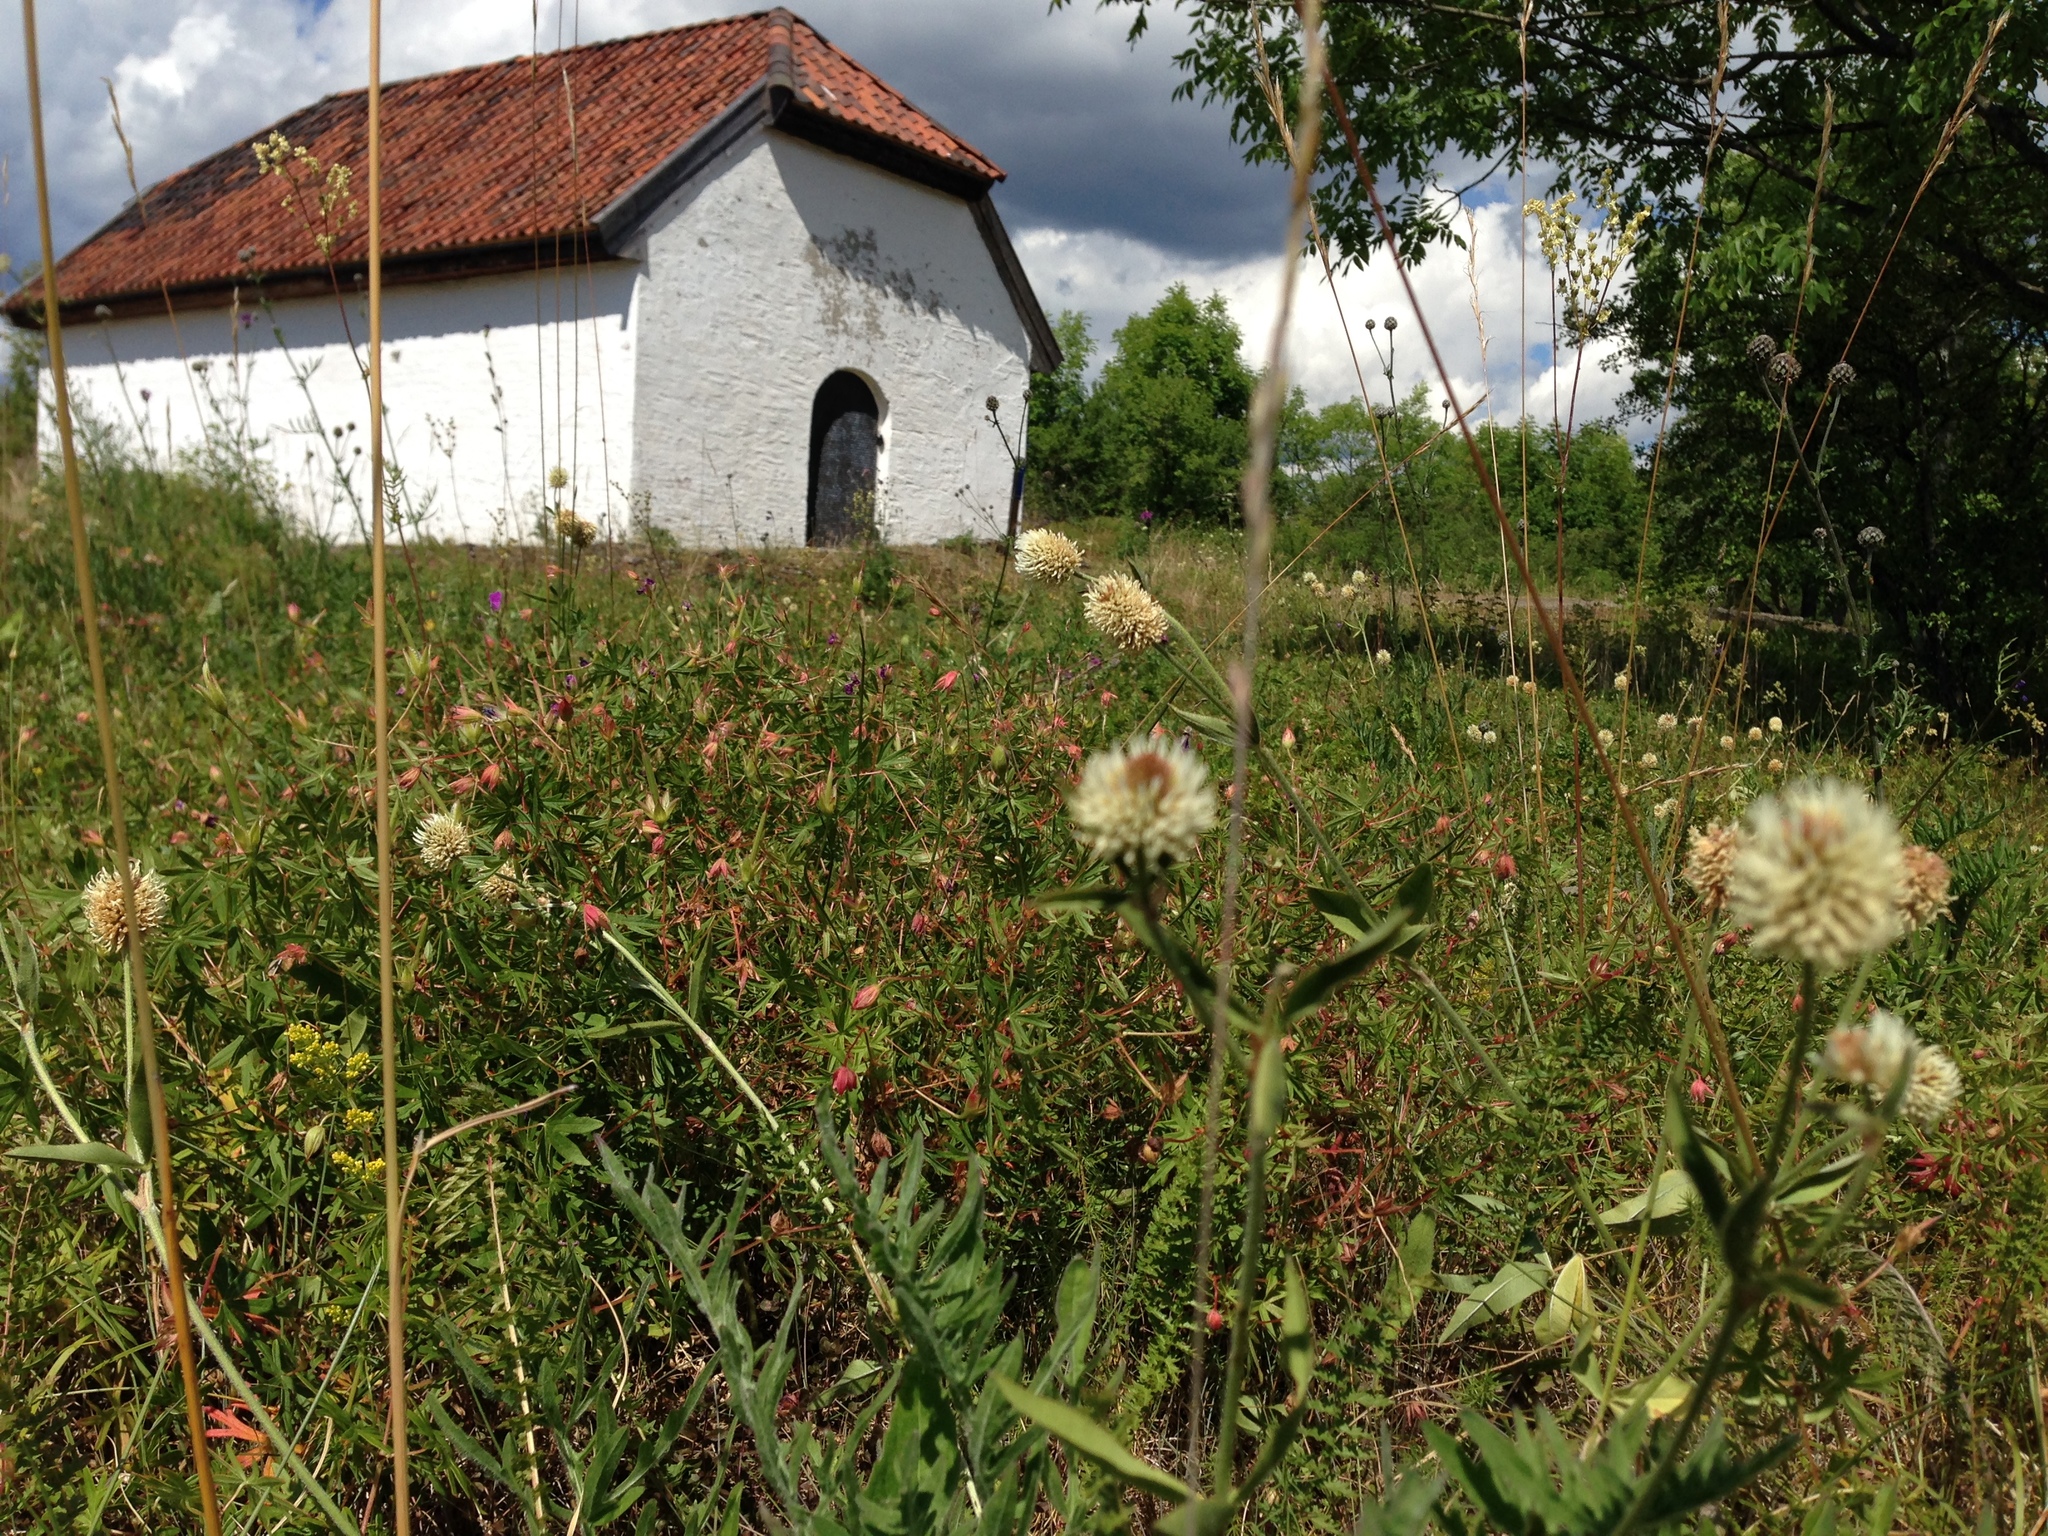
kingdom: Plantae
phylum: Tracheophyta
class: Magnoliopsida
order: Fabales
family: Fabaceae
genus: Trifolium
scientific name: Trifolium montanum
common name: Mountain clover
